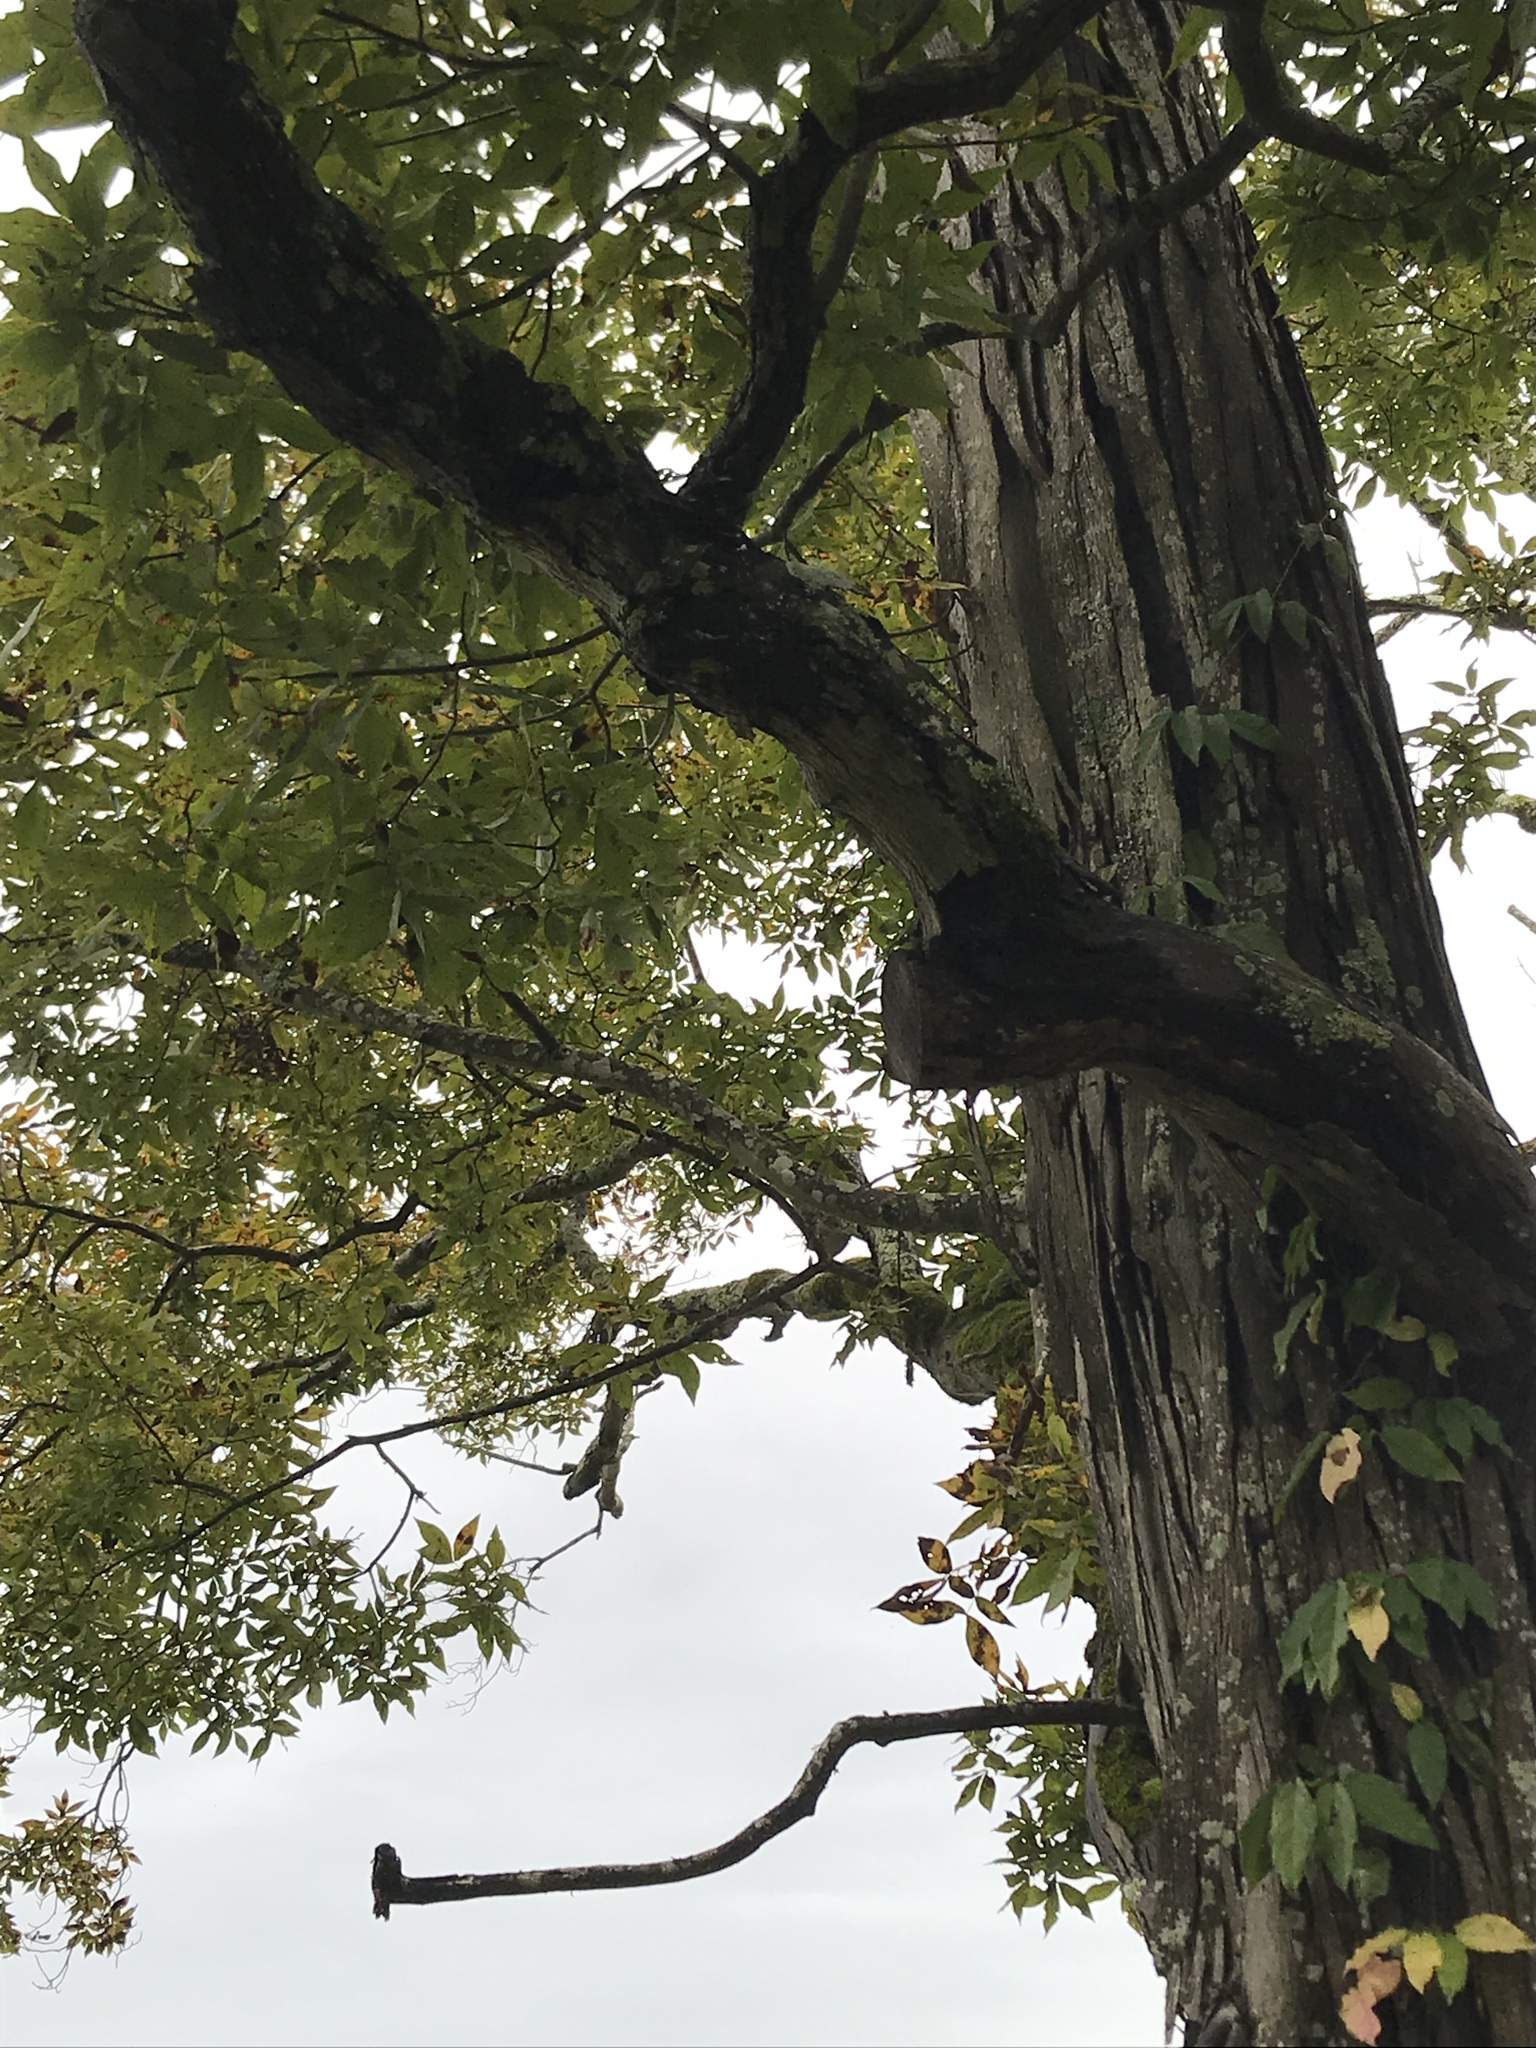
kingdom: Plantae
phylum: Tracheophyta
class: Magnoliopsida
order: Fagales
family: Juglandaceae
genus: Carya
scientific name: Carya ovata
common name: Shagbark hickory
